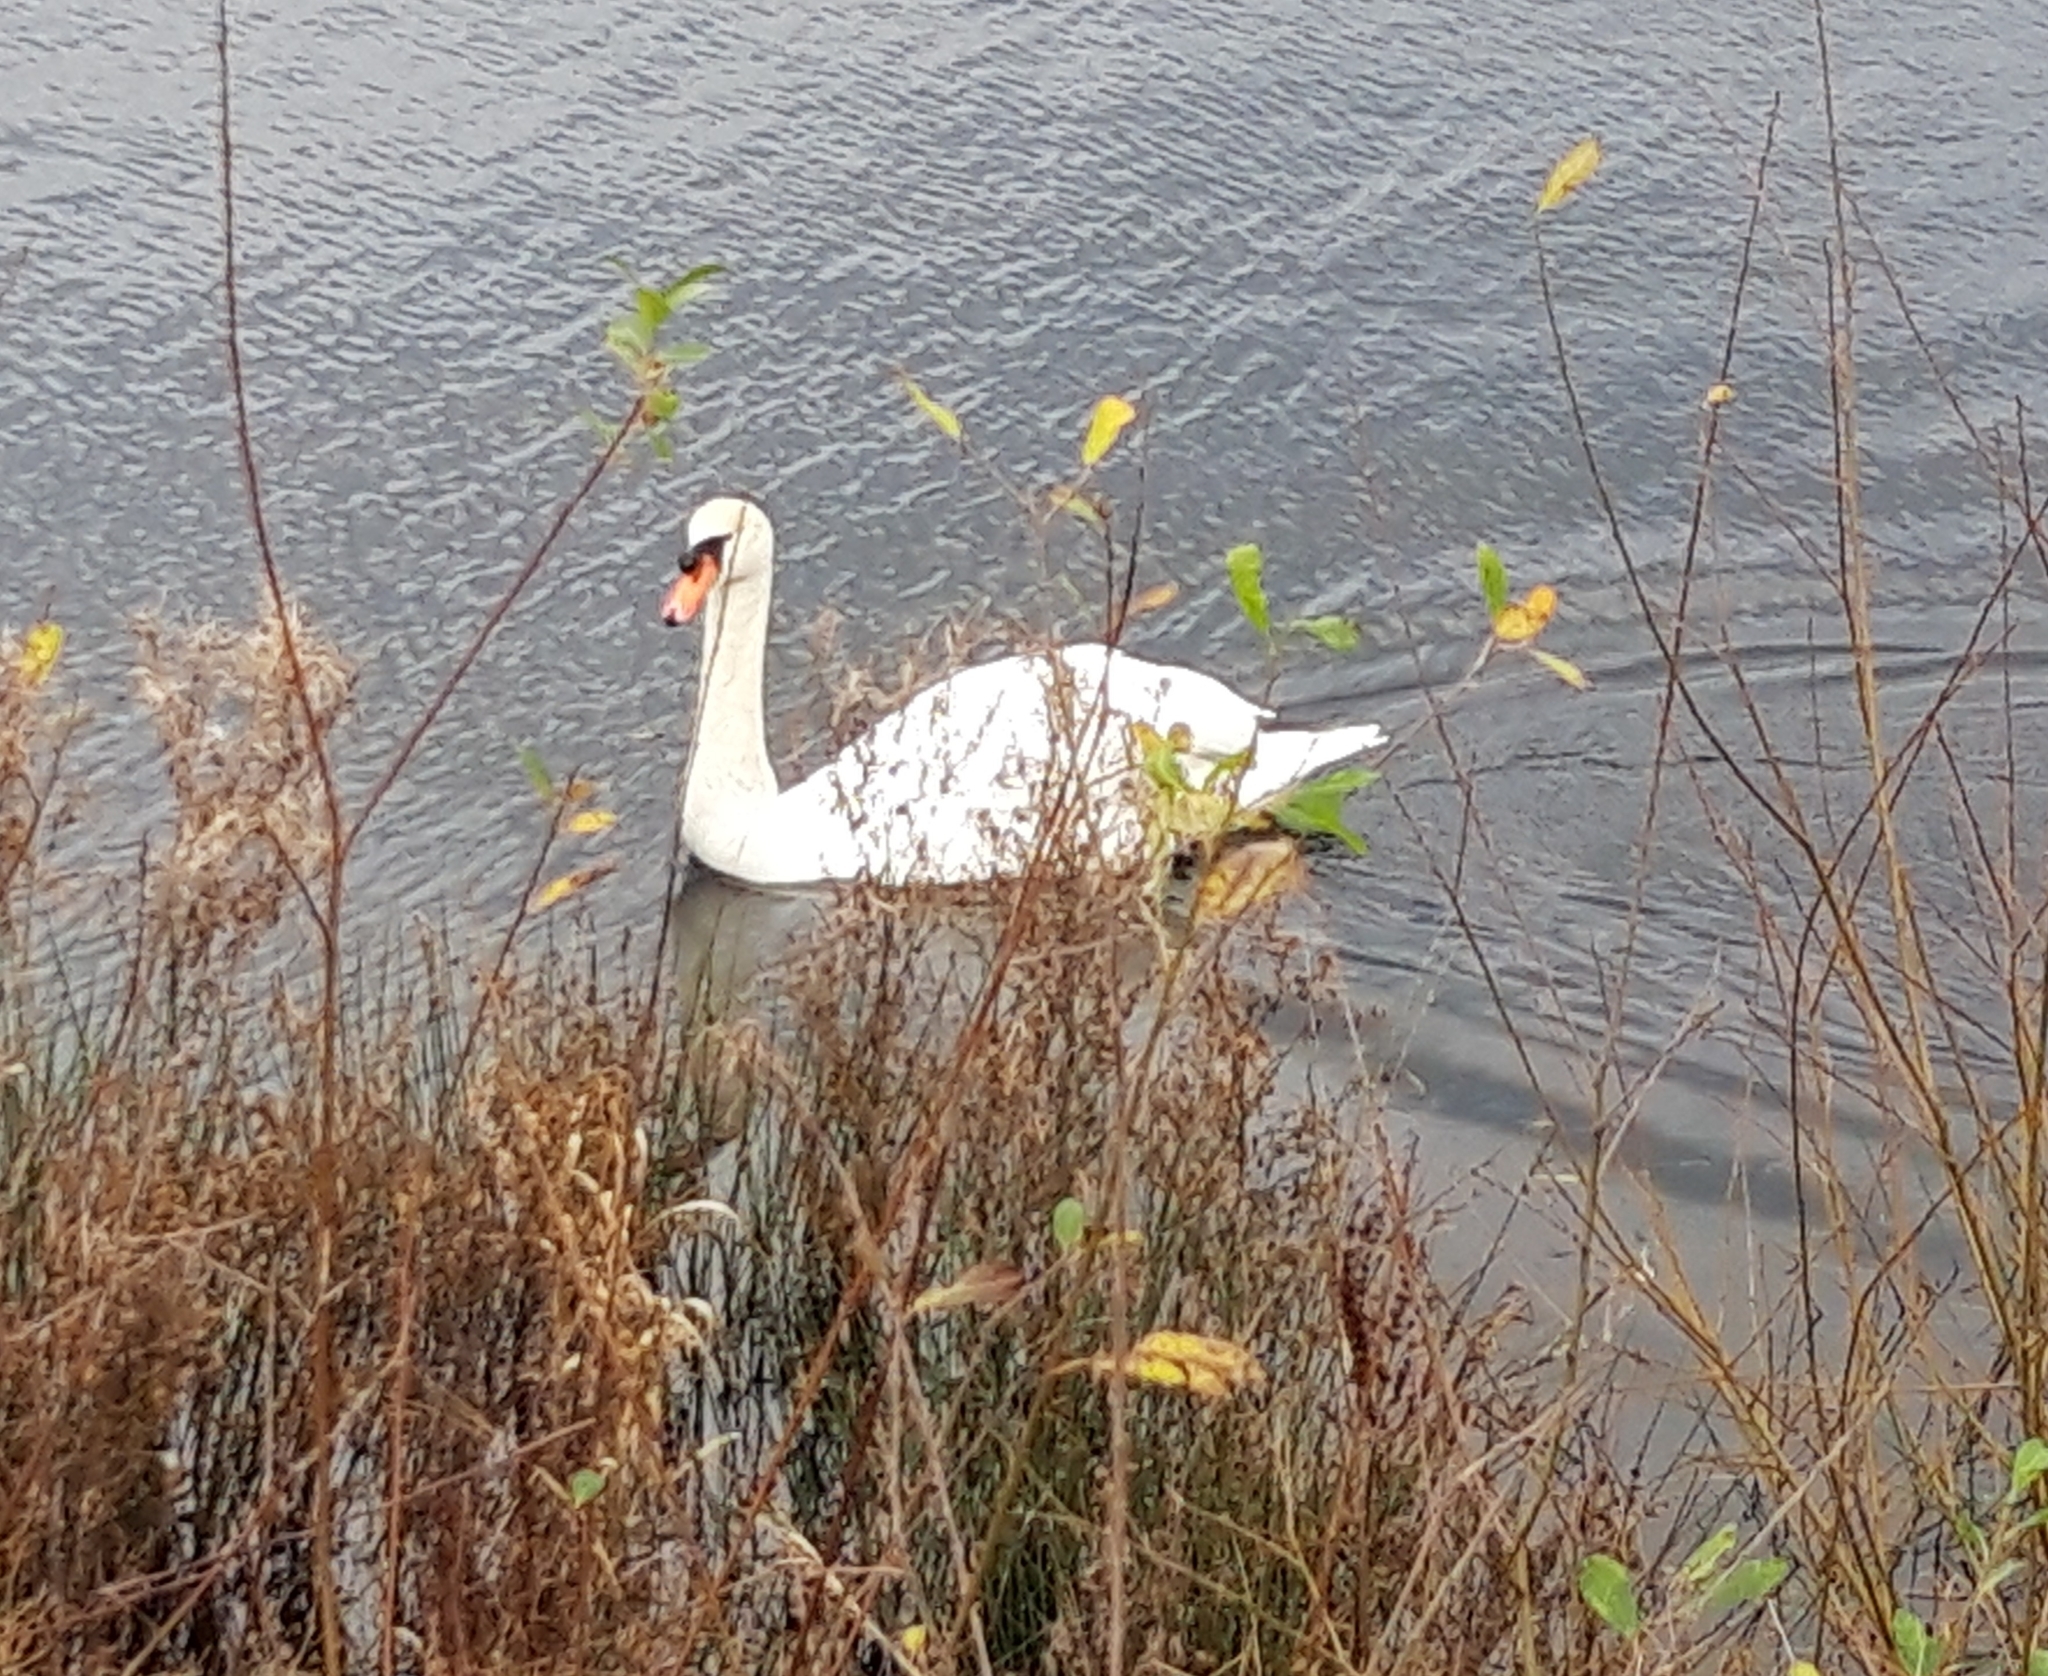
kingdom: Animalia
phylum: Chordata
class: Aves
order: Anseriformes
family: Anatidae
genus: Cygnus
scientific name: Cygnus olor
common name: Mute swan
